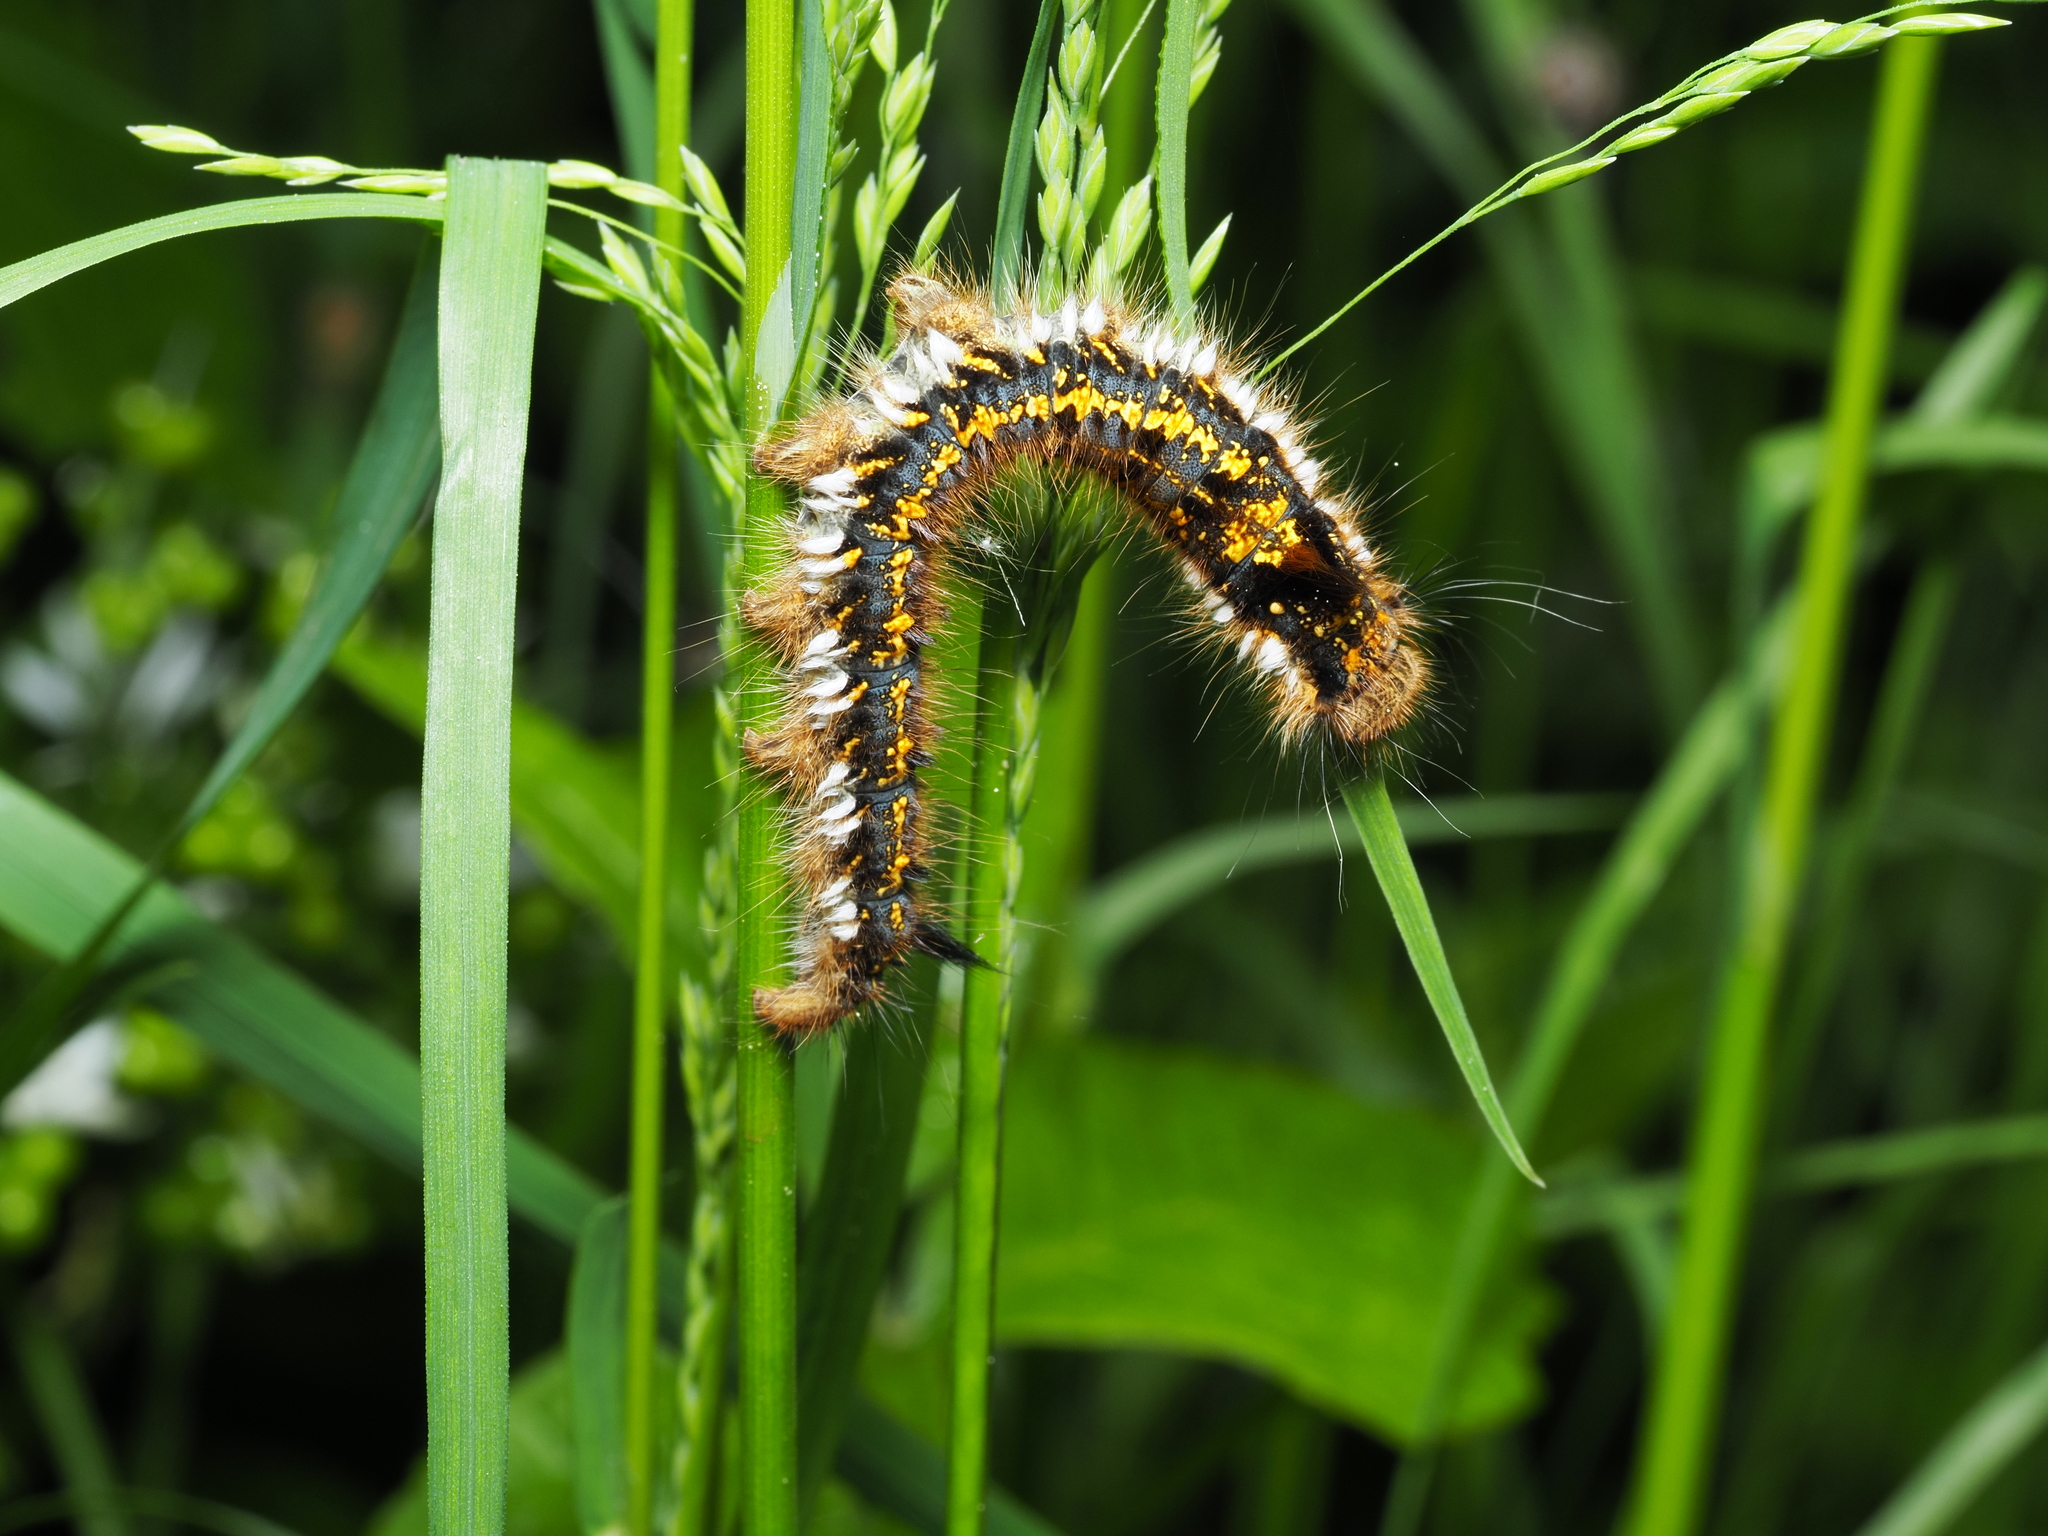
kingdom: Animalia
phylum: Arthropoda
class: Insecta
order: Lepidoptera
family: Lasiocampidae
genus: Euthrix
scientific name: Euthrix potatoria
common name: Drinker
